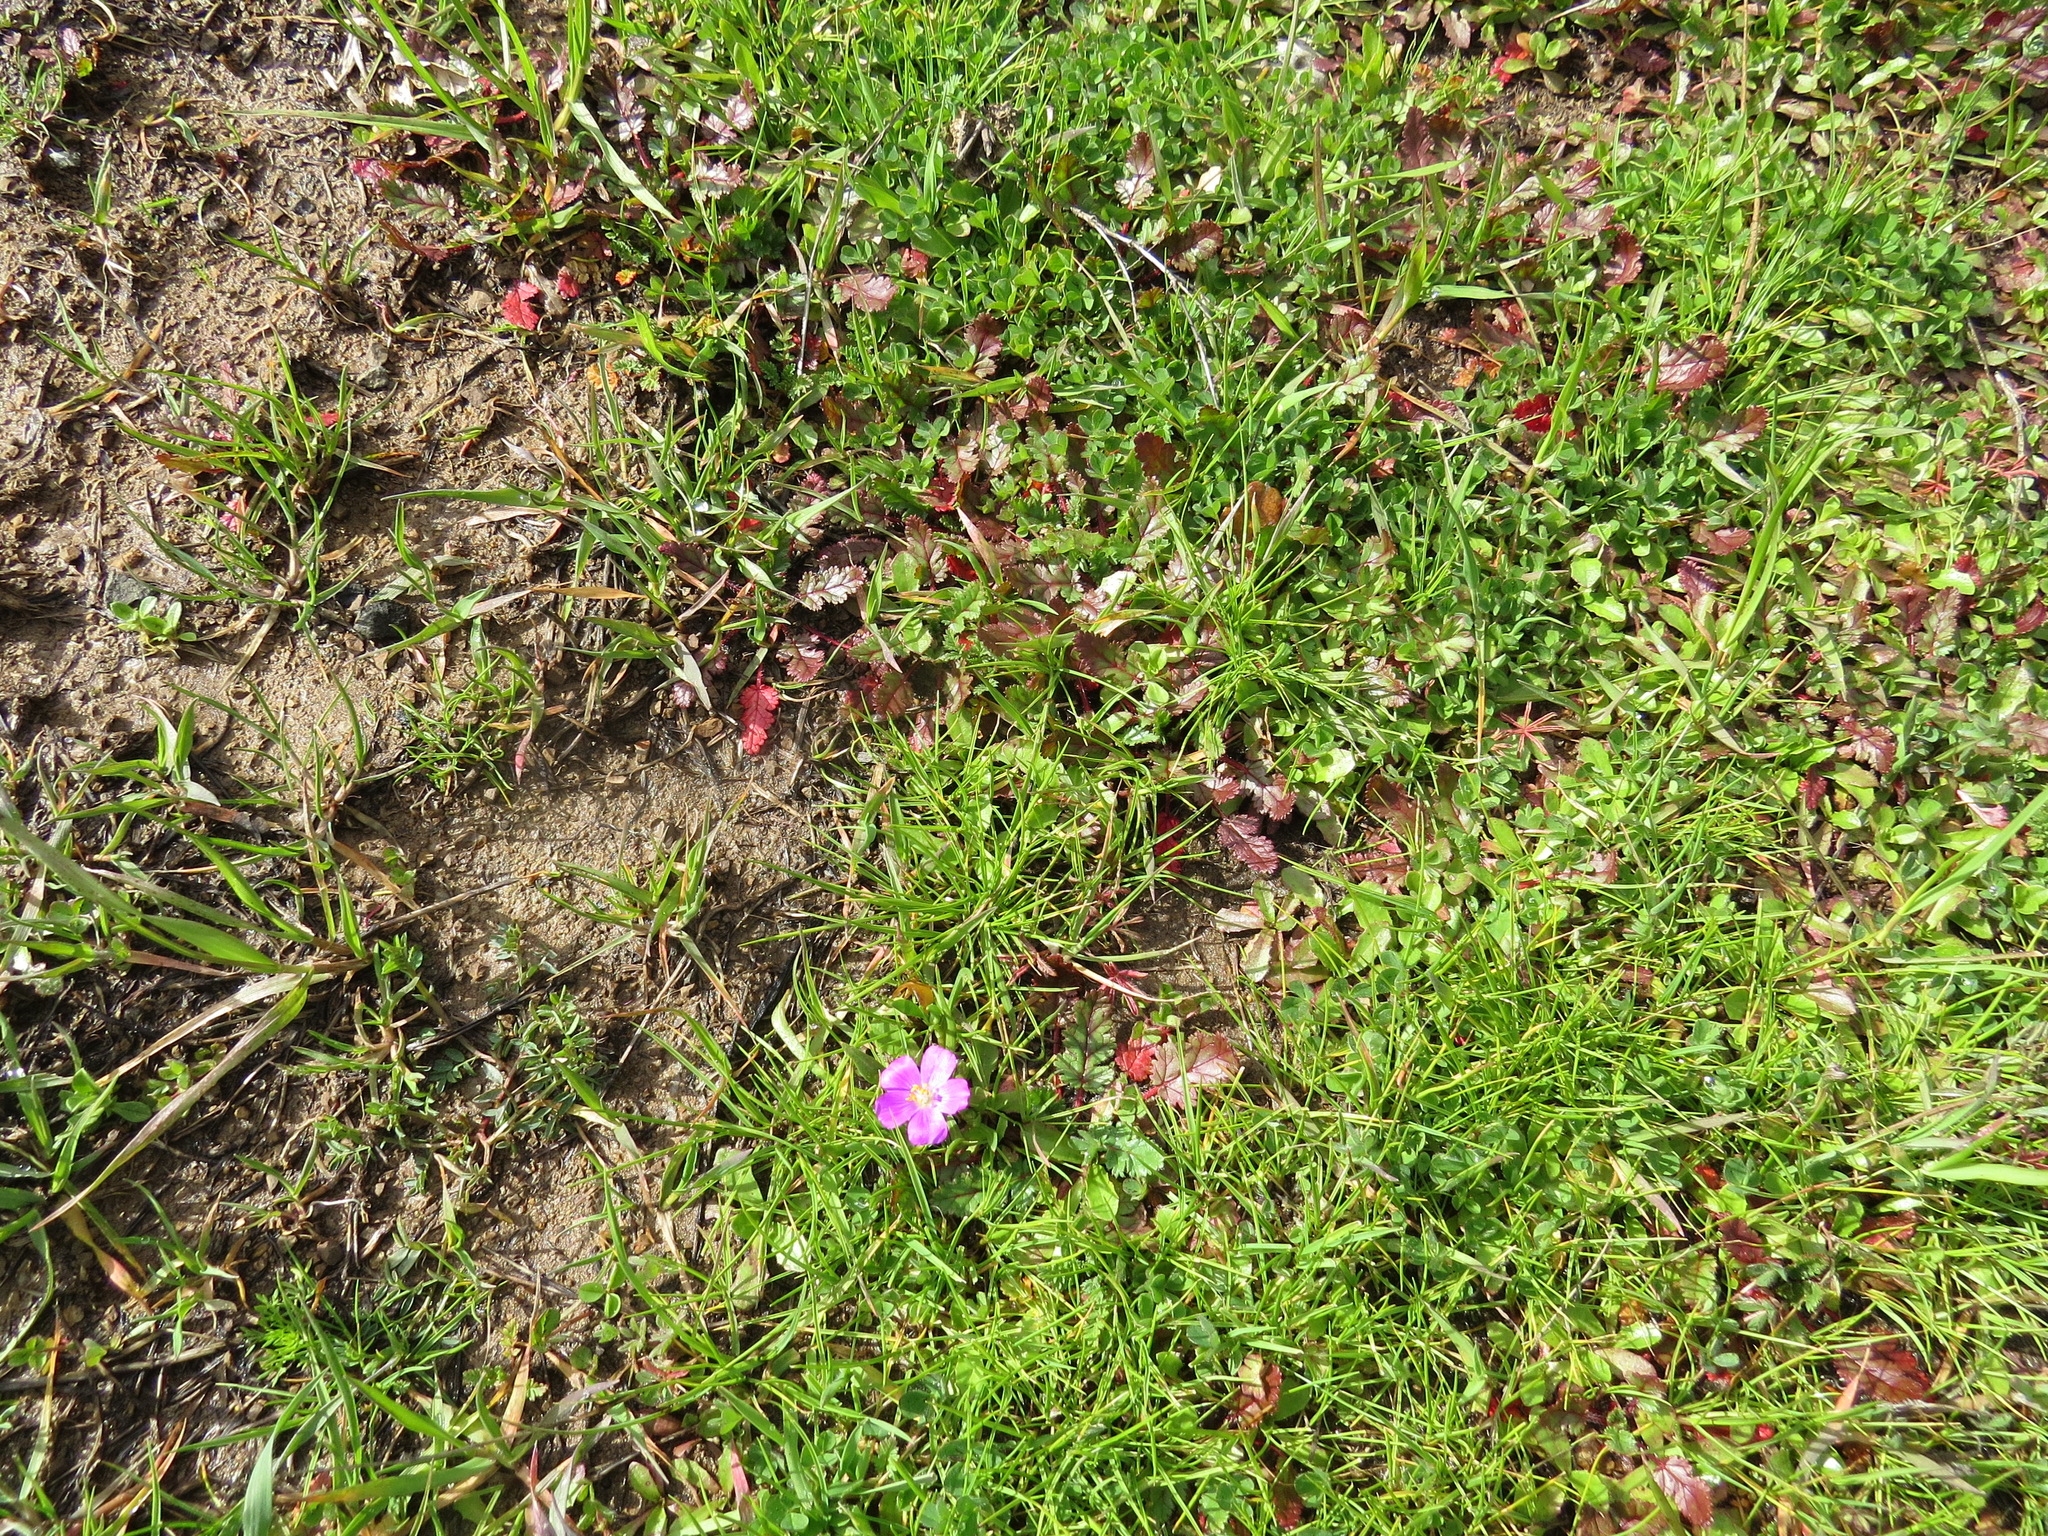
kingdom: Plantae
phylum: Tracheophyta
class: Magnoliopsida
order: Caryophyllales
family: Montiaceae
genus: Calandrinia
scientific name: Calandrinia menziesii
